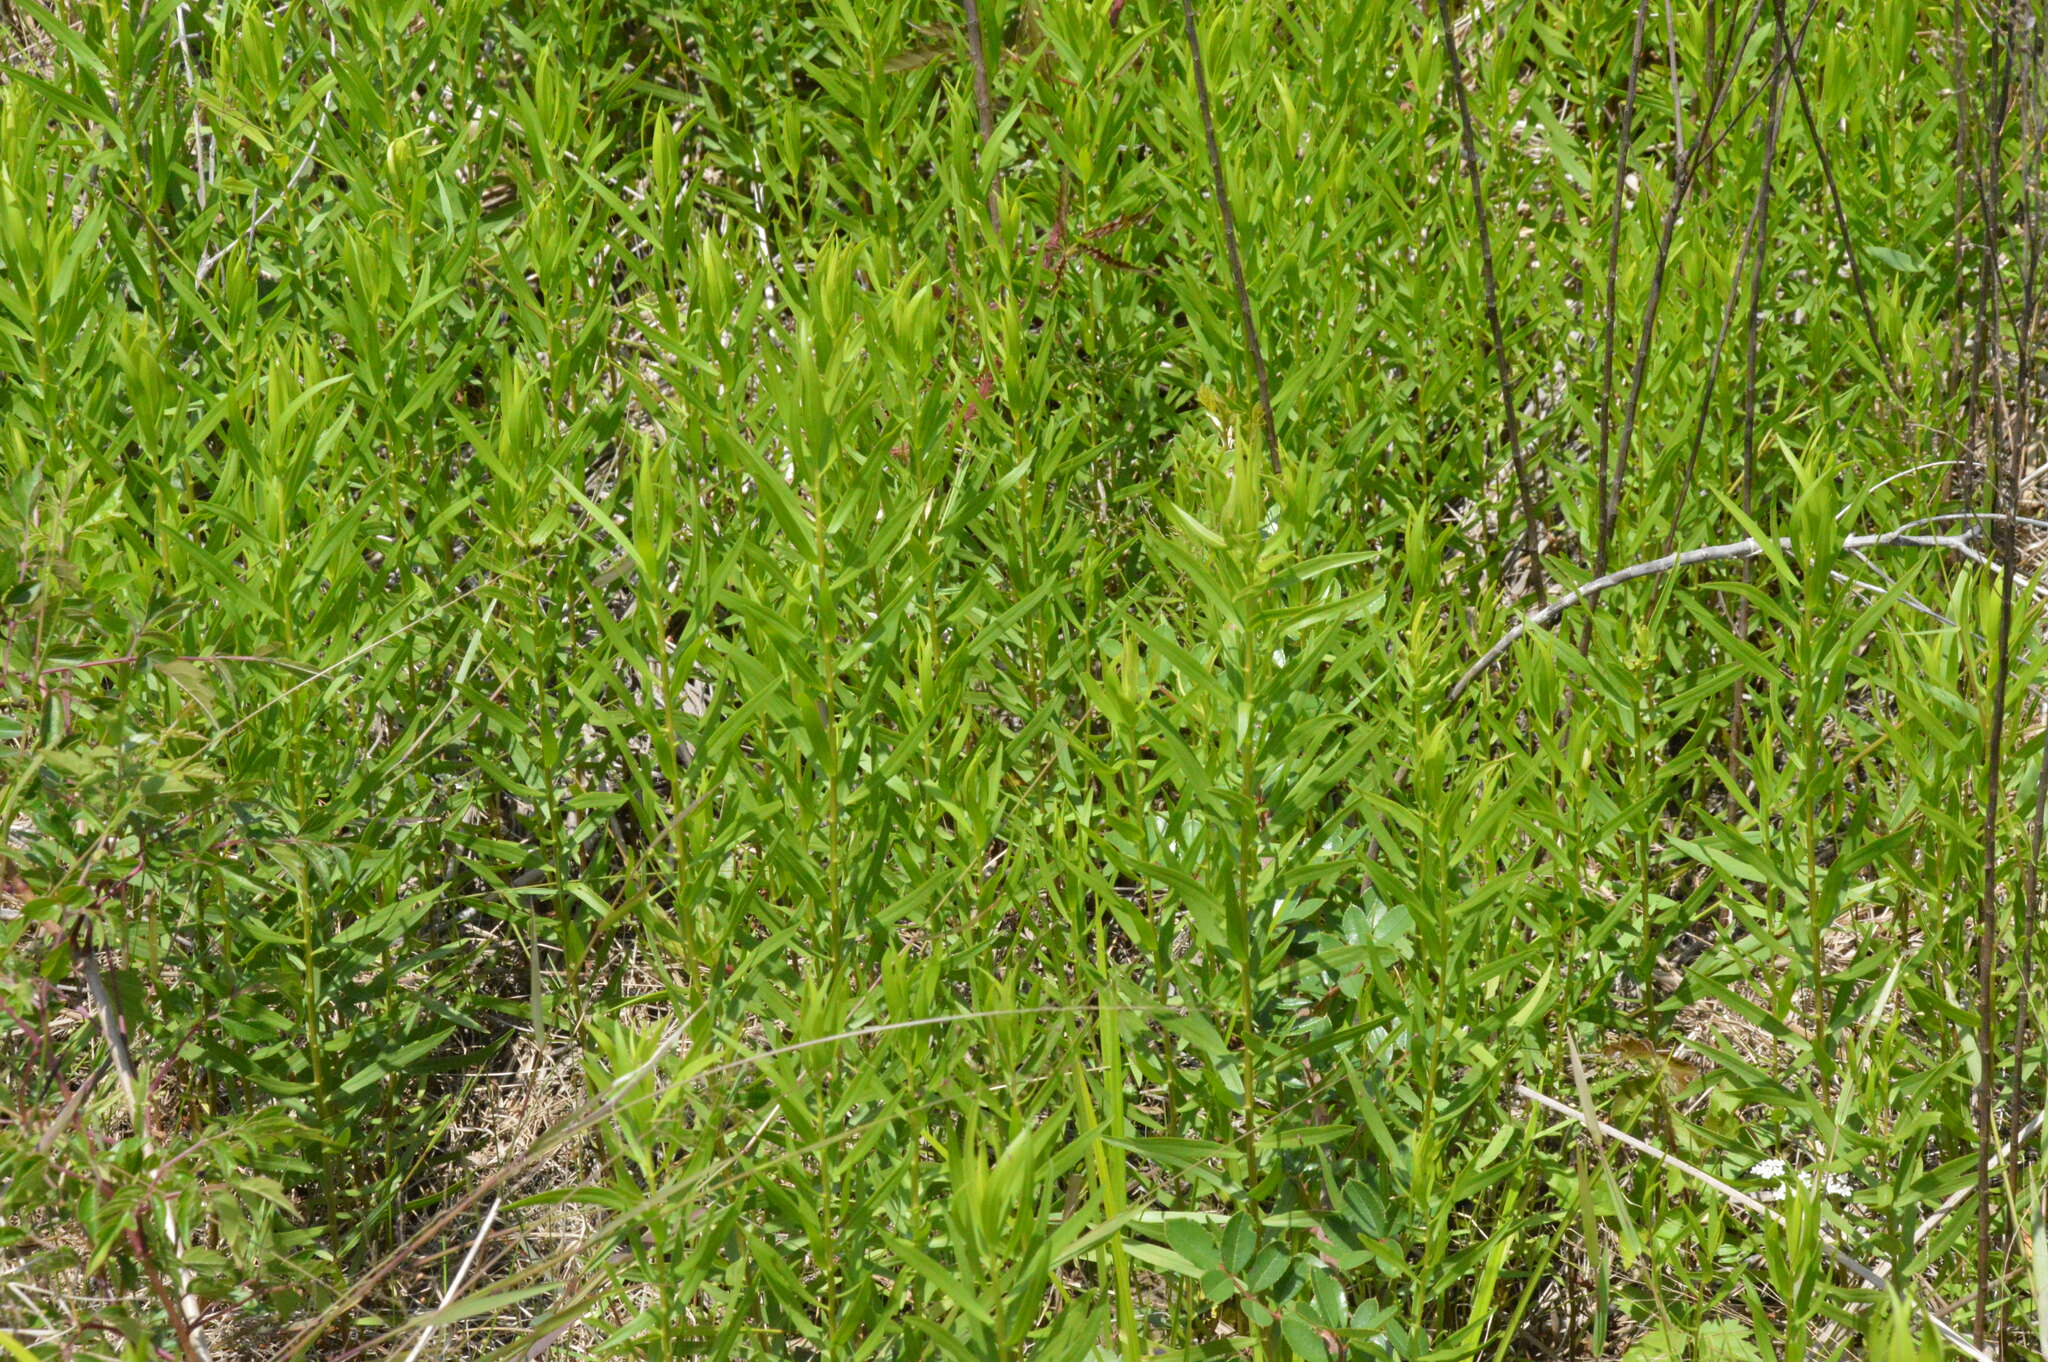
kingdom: Plantae
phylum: Tracheophyta
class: Magnoliopsida
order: Asterales
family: Asteraceae
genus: Euthamia
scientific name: Euthamia leptocephala
